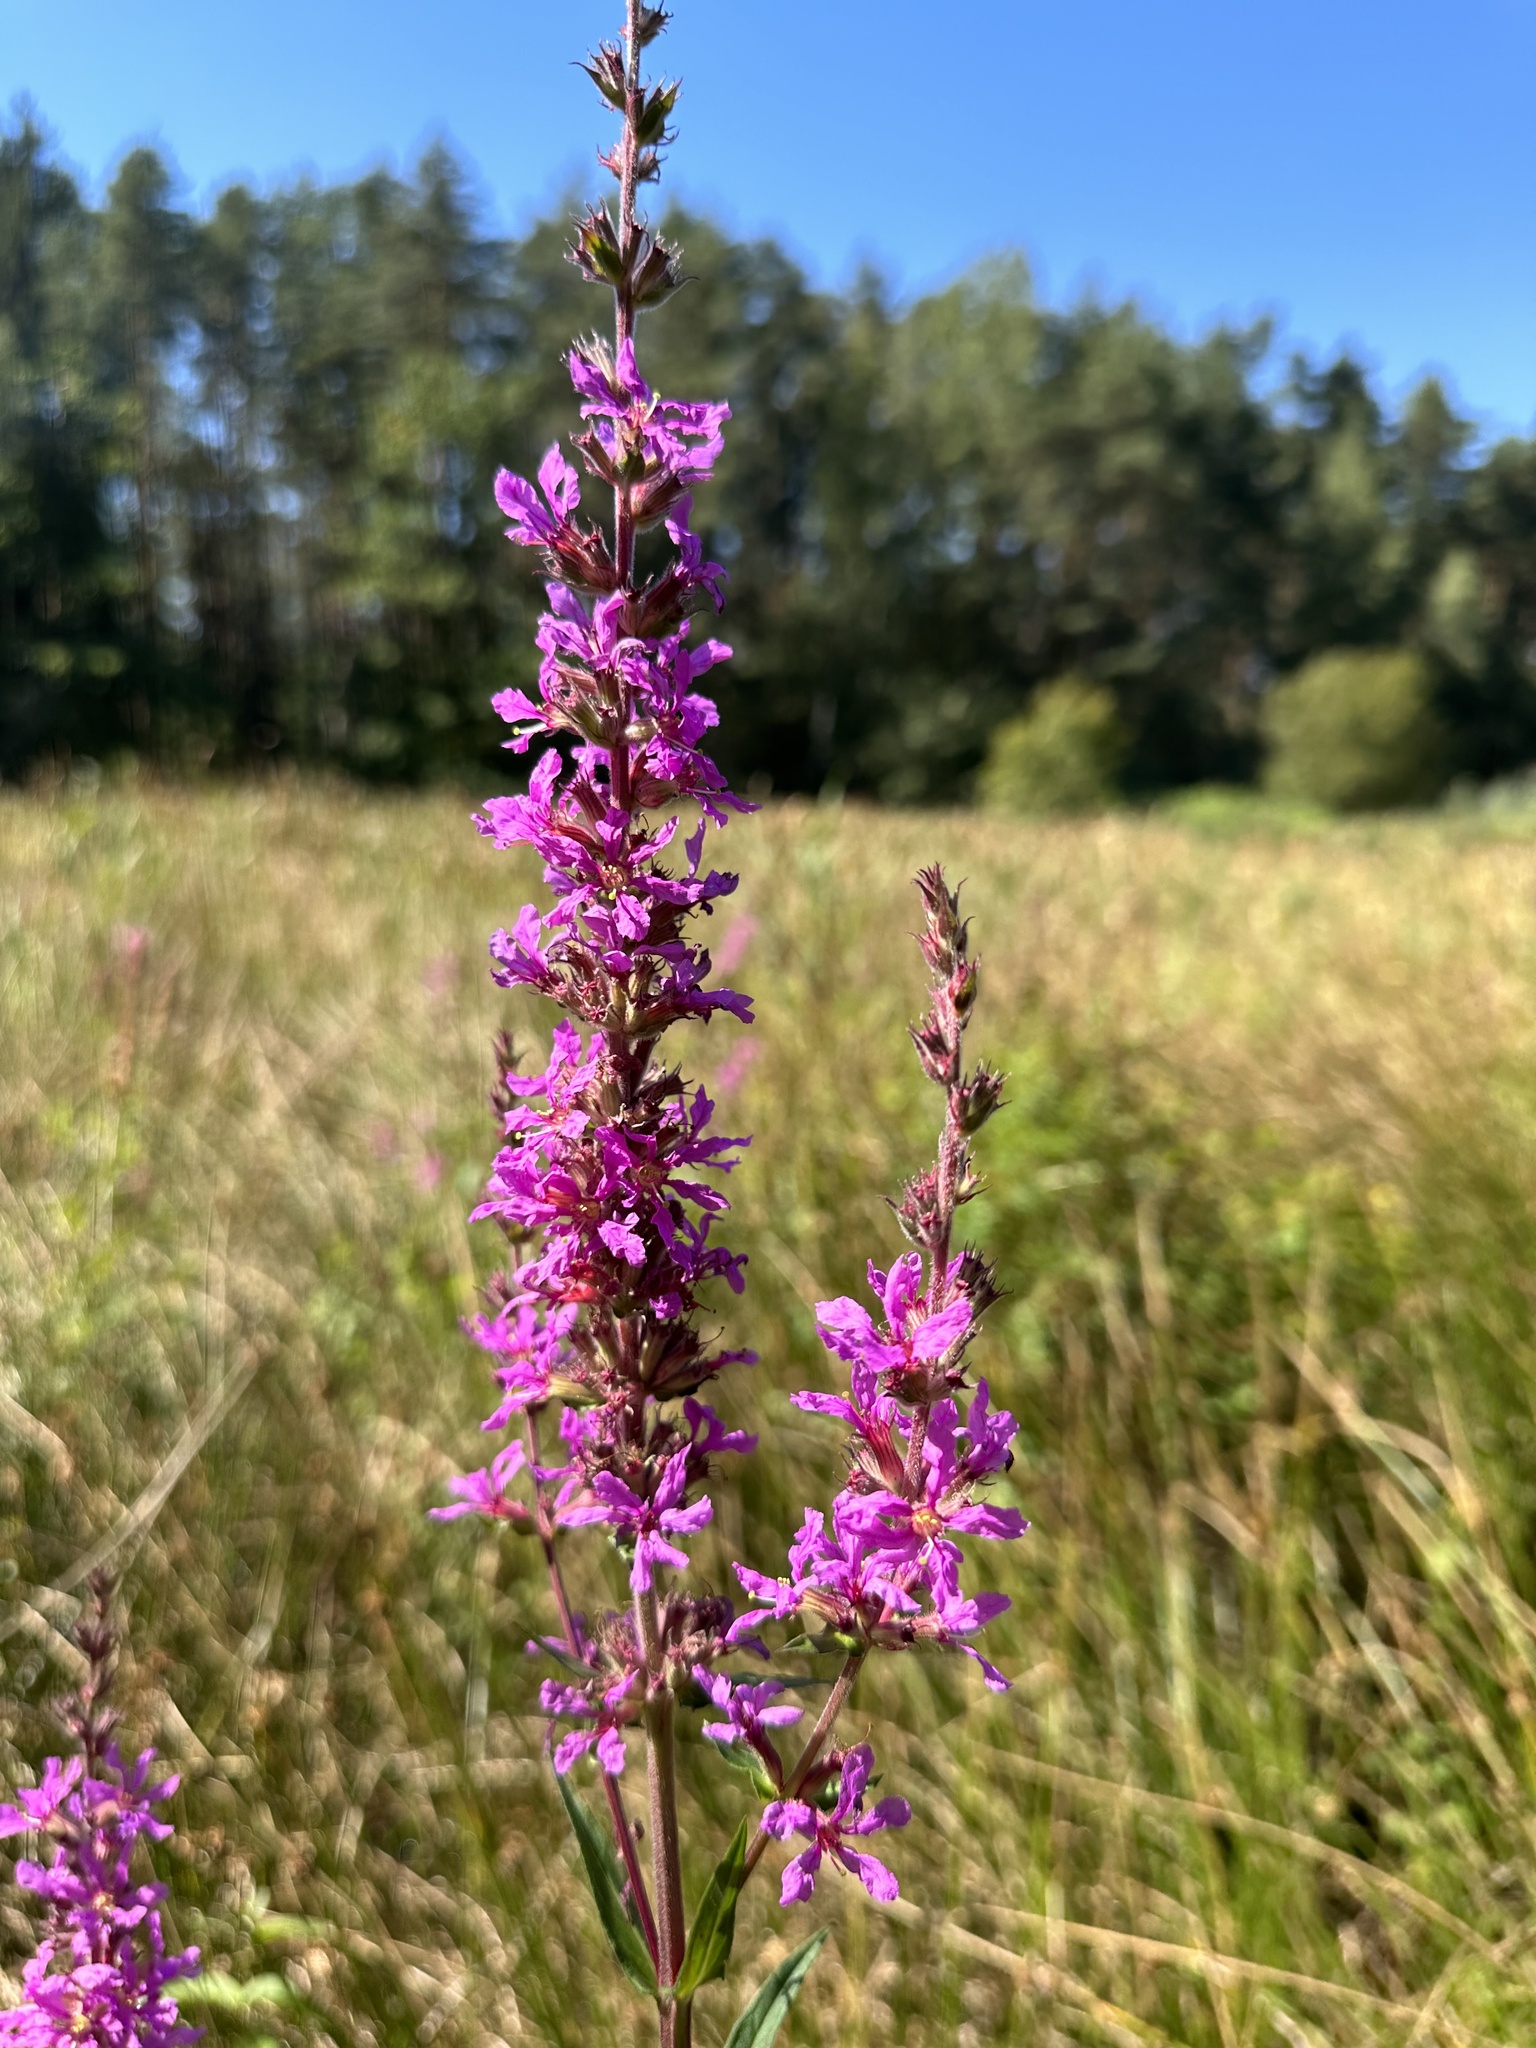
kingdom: Plantae
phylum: Tracheophyta
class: Magnoliopsida
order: Myrtales
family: Lythraceae
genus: Lythrum
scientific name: Lythrum salicaria
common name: Purple loosestrife
